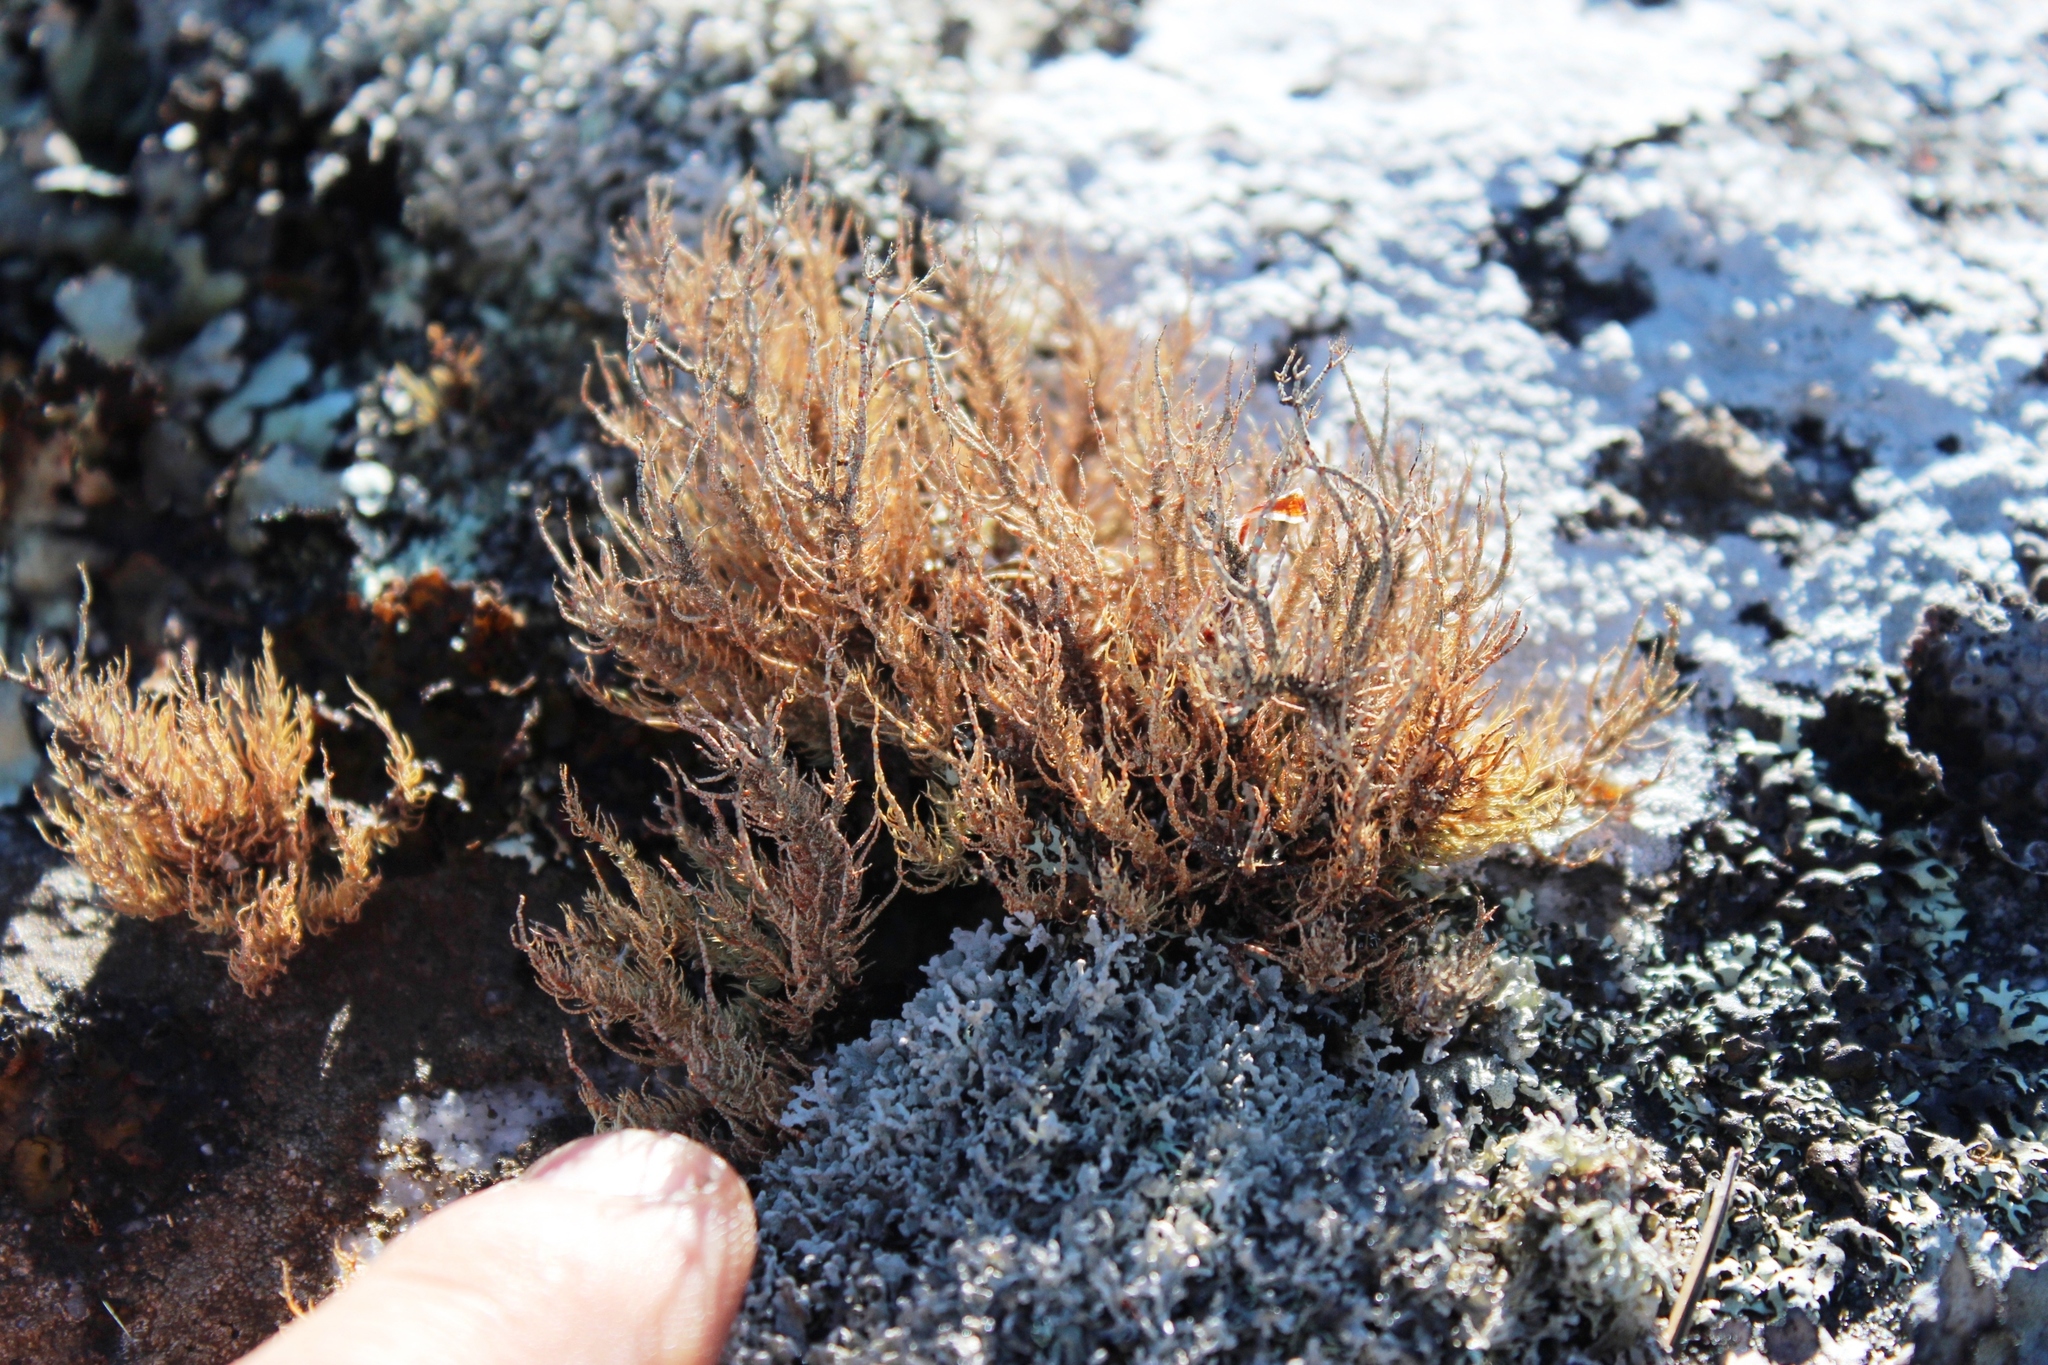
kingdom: Fungi
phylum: Ascomycota
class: Lecanoromycetes
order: Lecanorales
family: Parmeliaceae
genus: Usnea
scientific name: Usnea maculata
